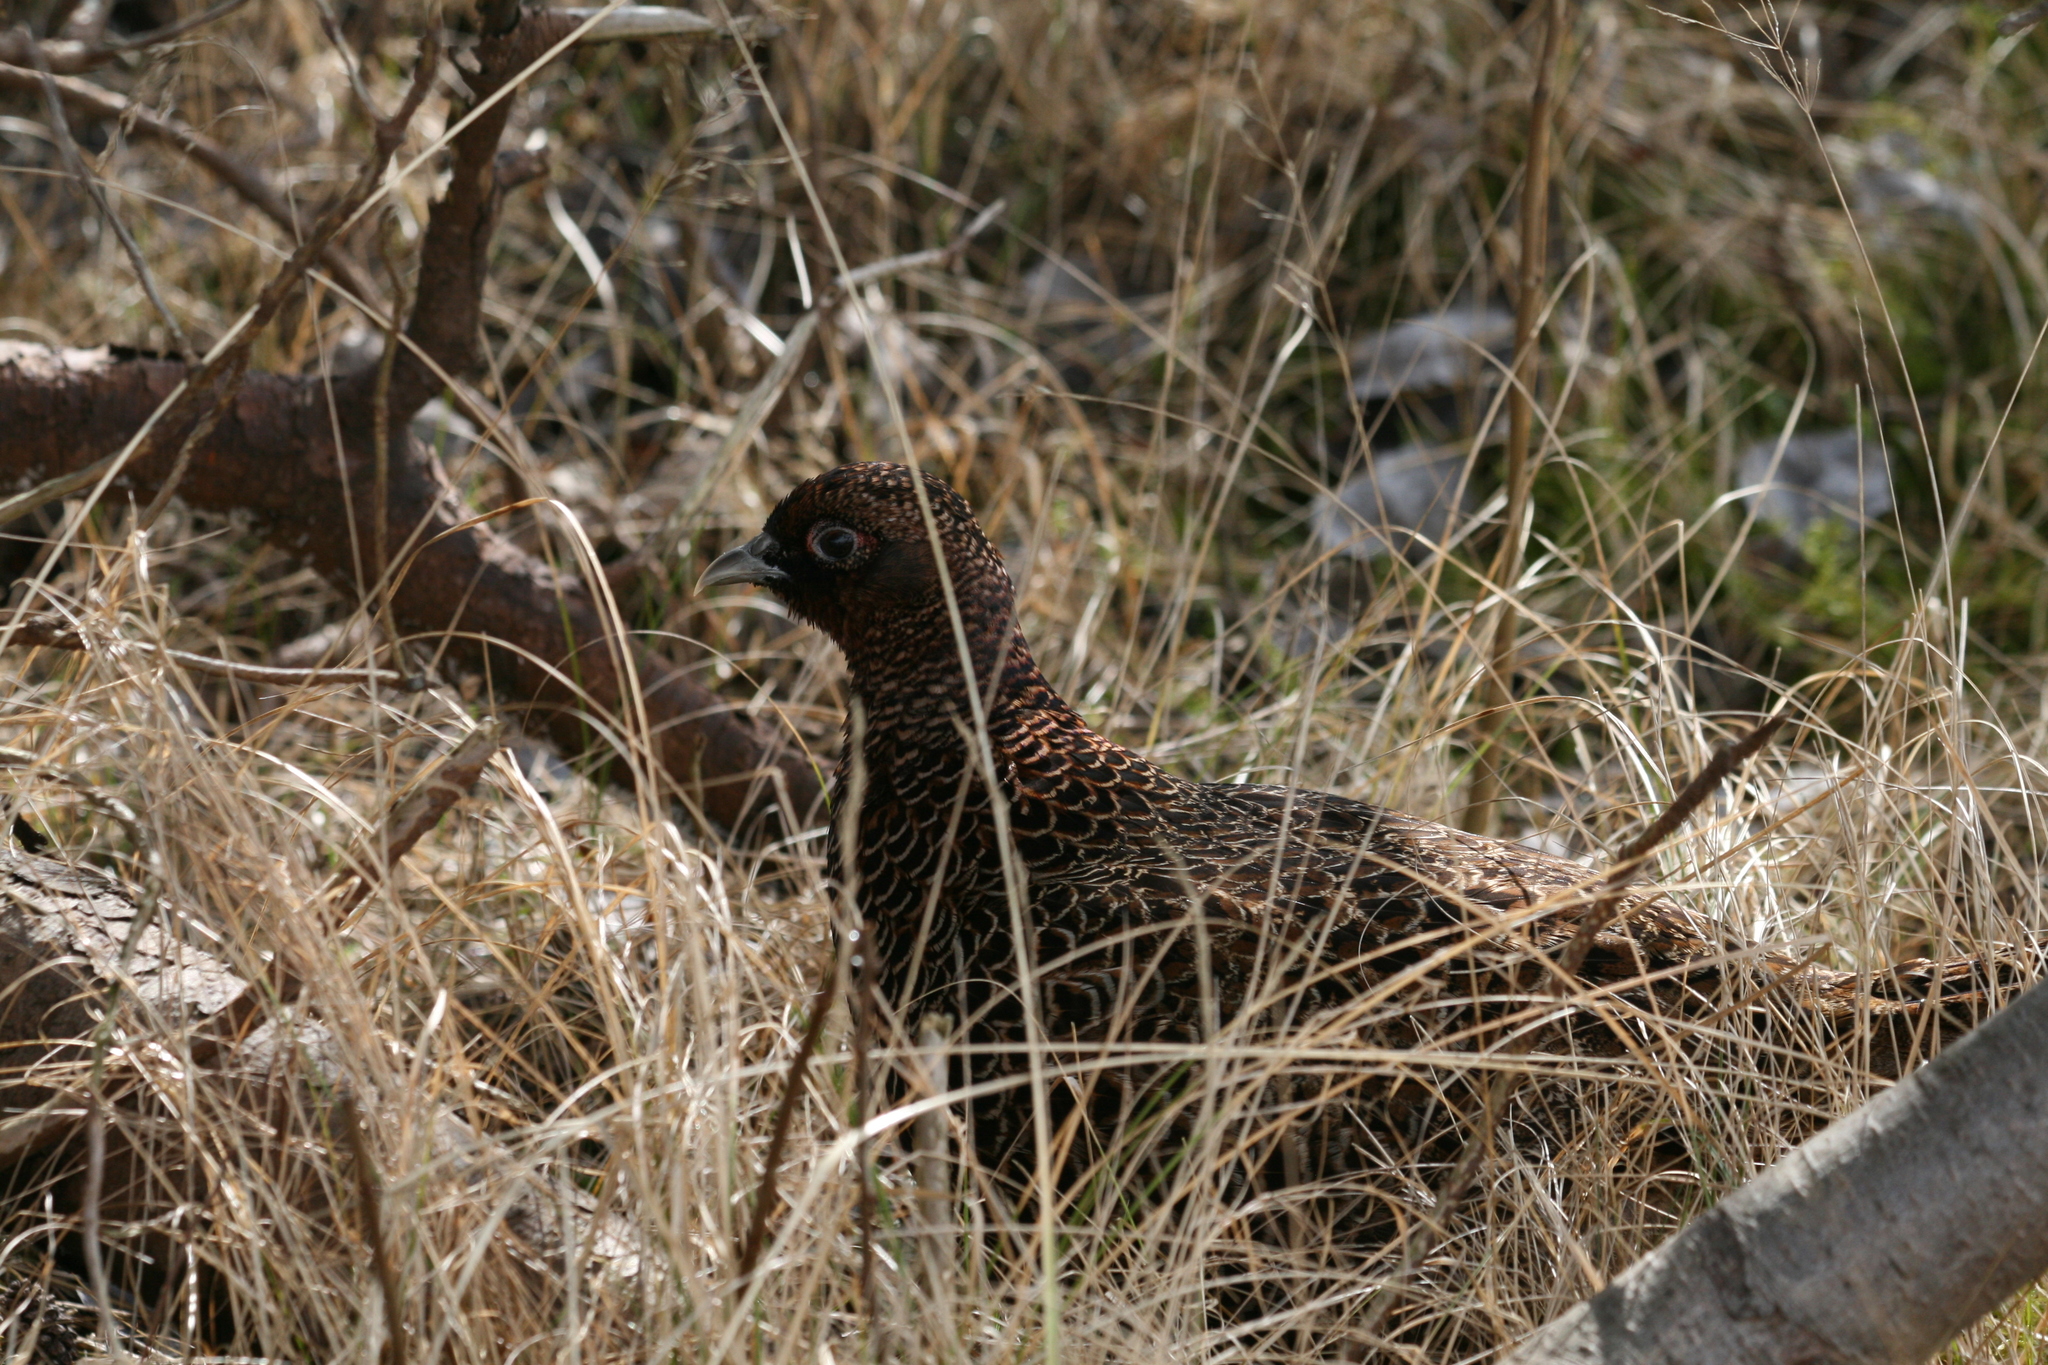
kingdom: Animalia
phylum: Chordata
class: Aves
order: Galliformes
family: Phasianidae
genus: Phasianus
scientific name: Phasianus colchicus
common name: Common pheasant
